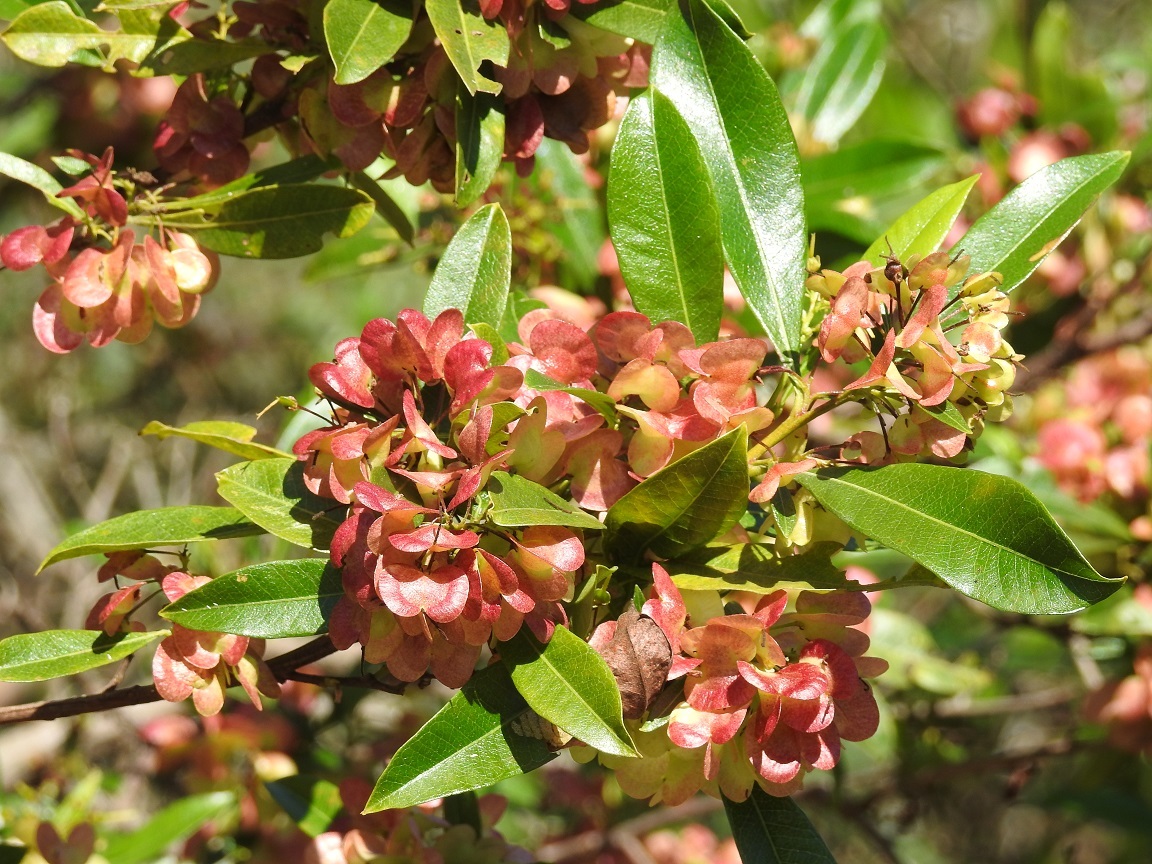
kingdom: Plantae
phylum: Tracheophyta
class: Magnoliopsida
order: Sapindales
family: Sapindaceae
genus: Dodonaea
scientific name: Dodonaea viscosa
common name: Hopbush
